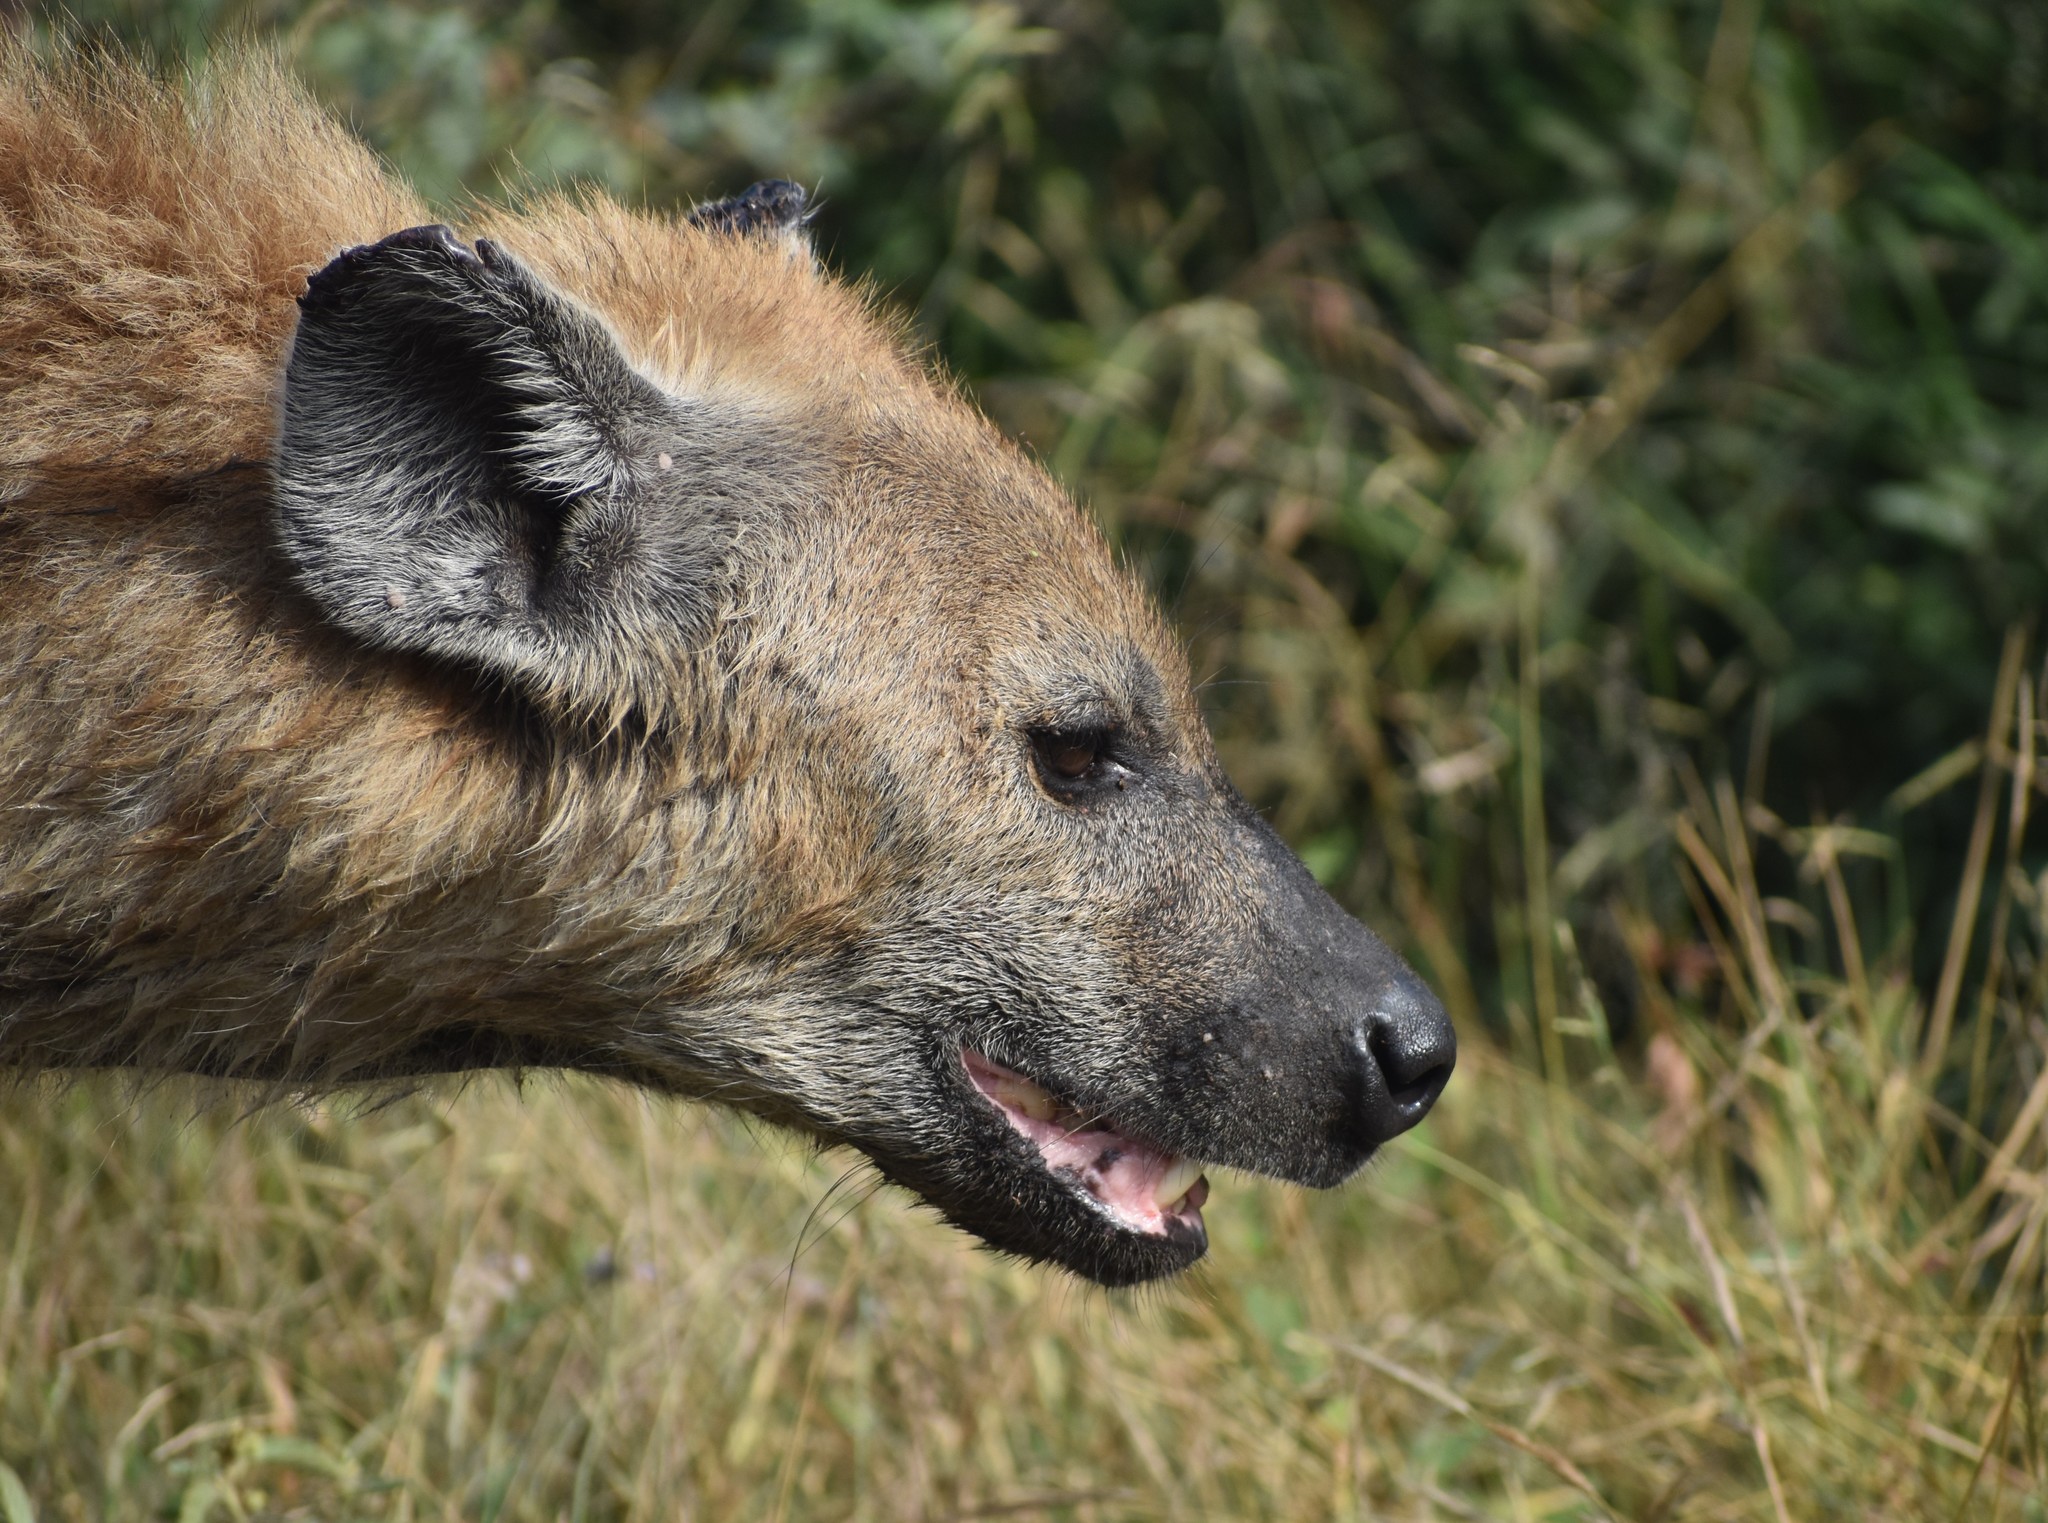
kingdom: Animalia
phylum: Chordata
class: Mammalia
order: Carnivora
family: Hyaenidae
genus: Crocuta
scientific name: Crocuta crocuta
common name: Spotted hyaena
